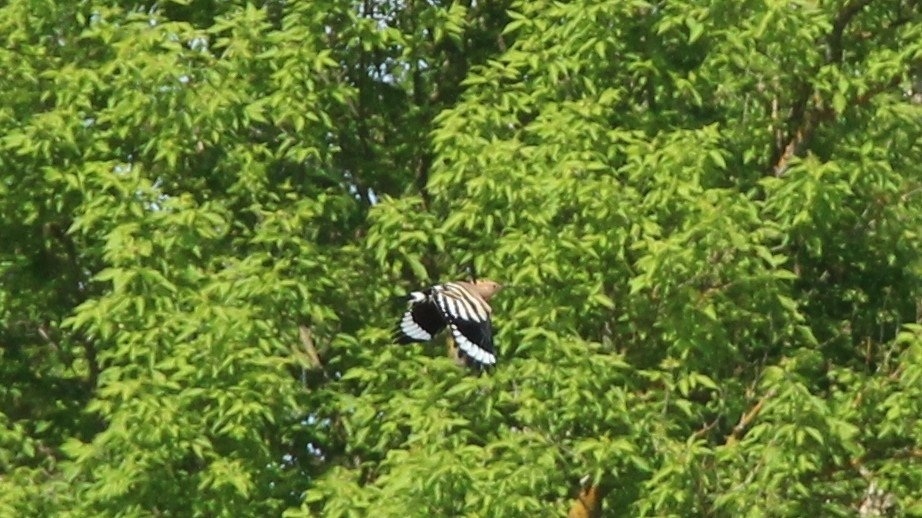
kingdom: Animalia
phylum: Chordata
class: Aves
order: Bucerotiformes
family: Upupidae
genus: Upupa
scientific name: Upupa epops
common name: Eurasian hoopoe
